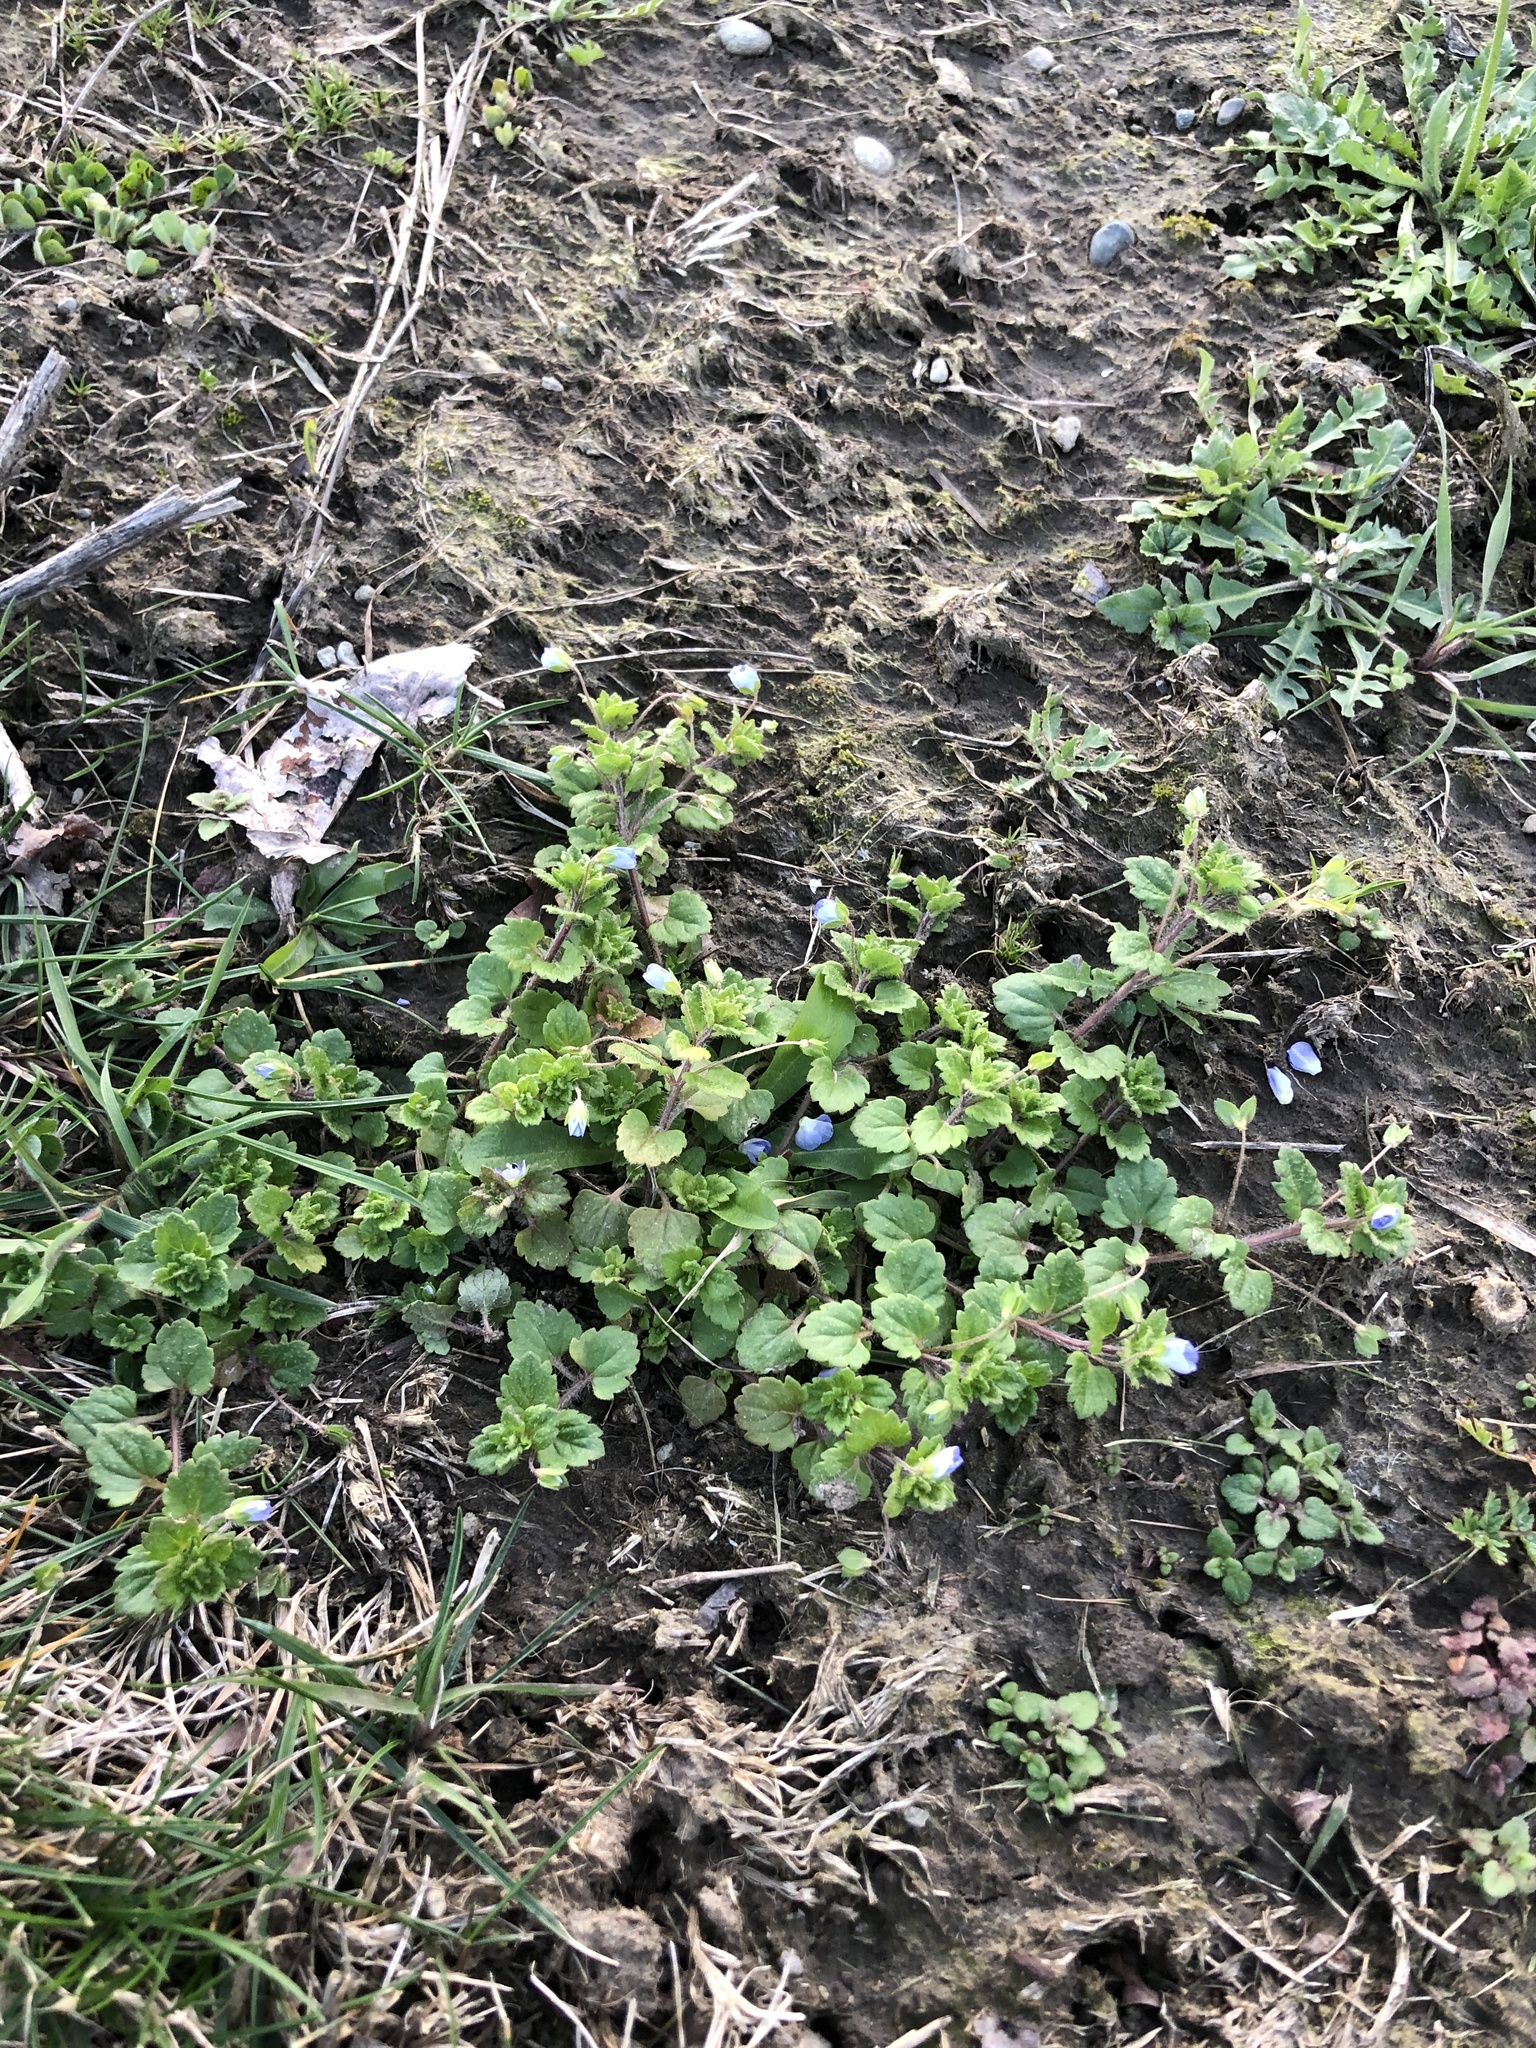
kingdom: Plantae
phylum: Tracheophyta
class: Magnoliopsida
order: Lamiales
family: Plantaginaceae
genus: Veronica
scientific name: Veronica persica
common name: Common field-speedwell
